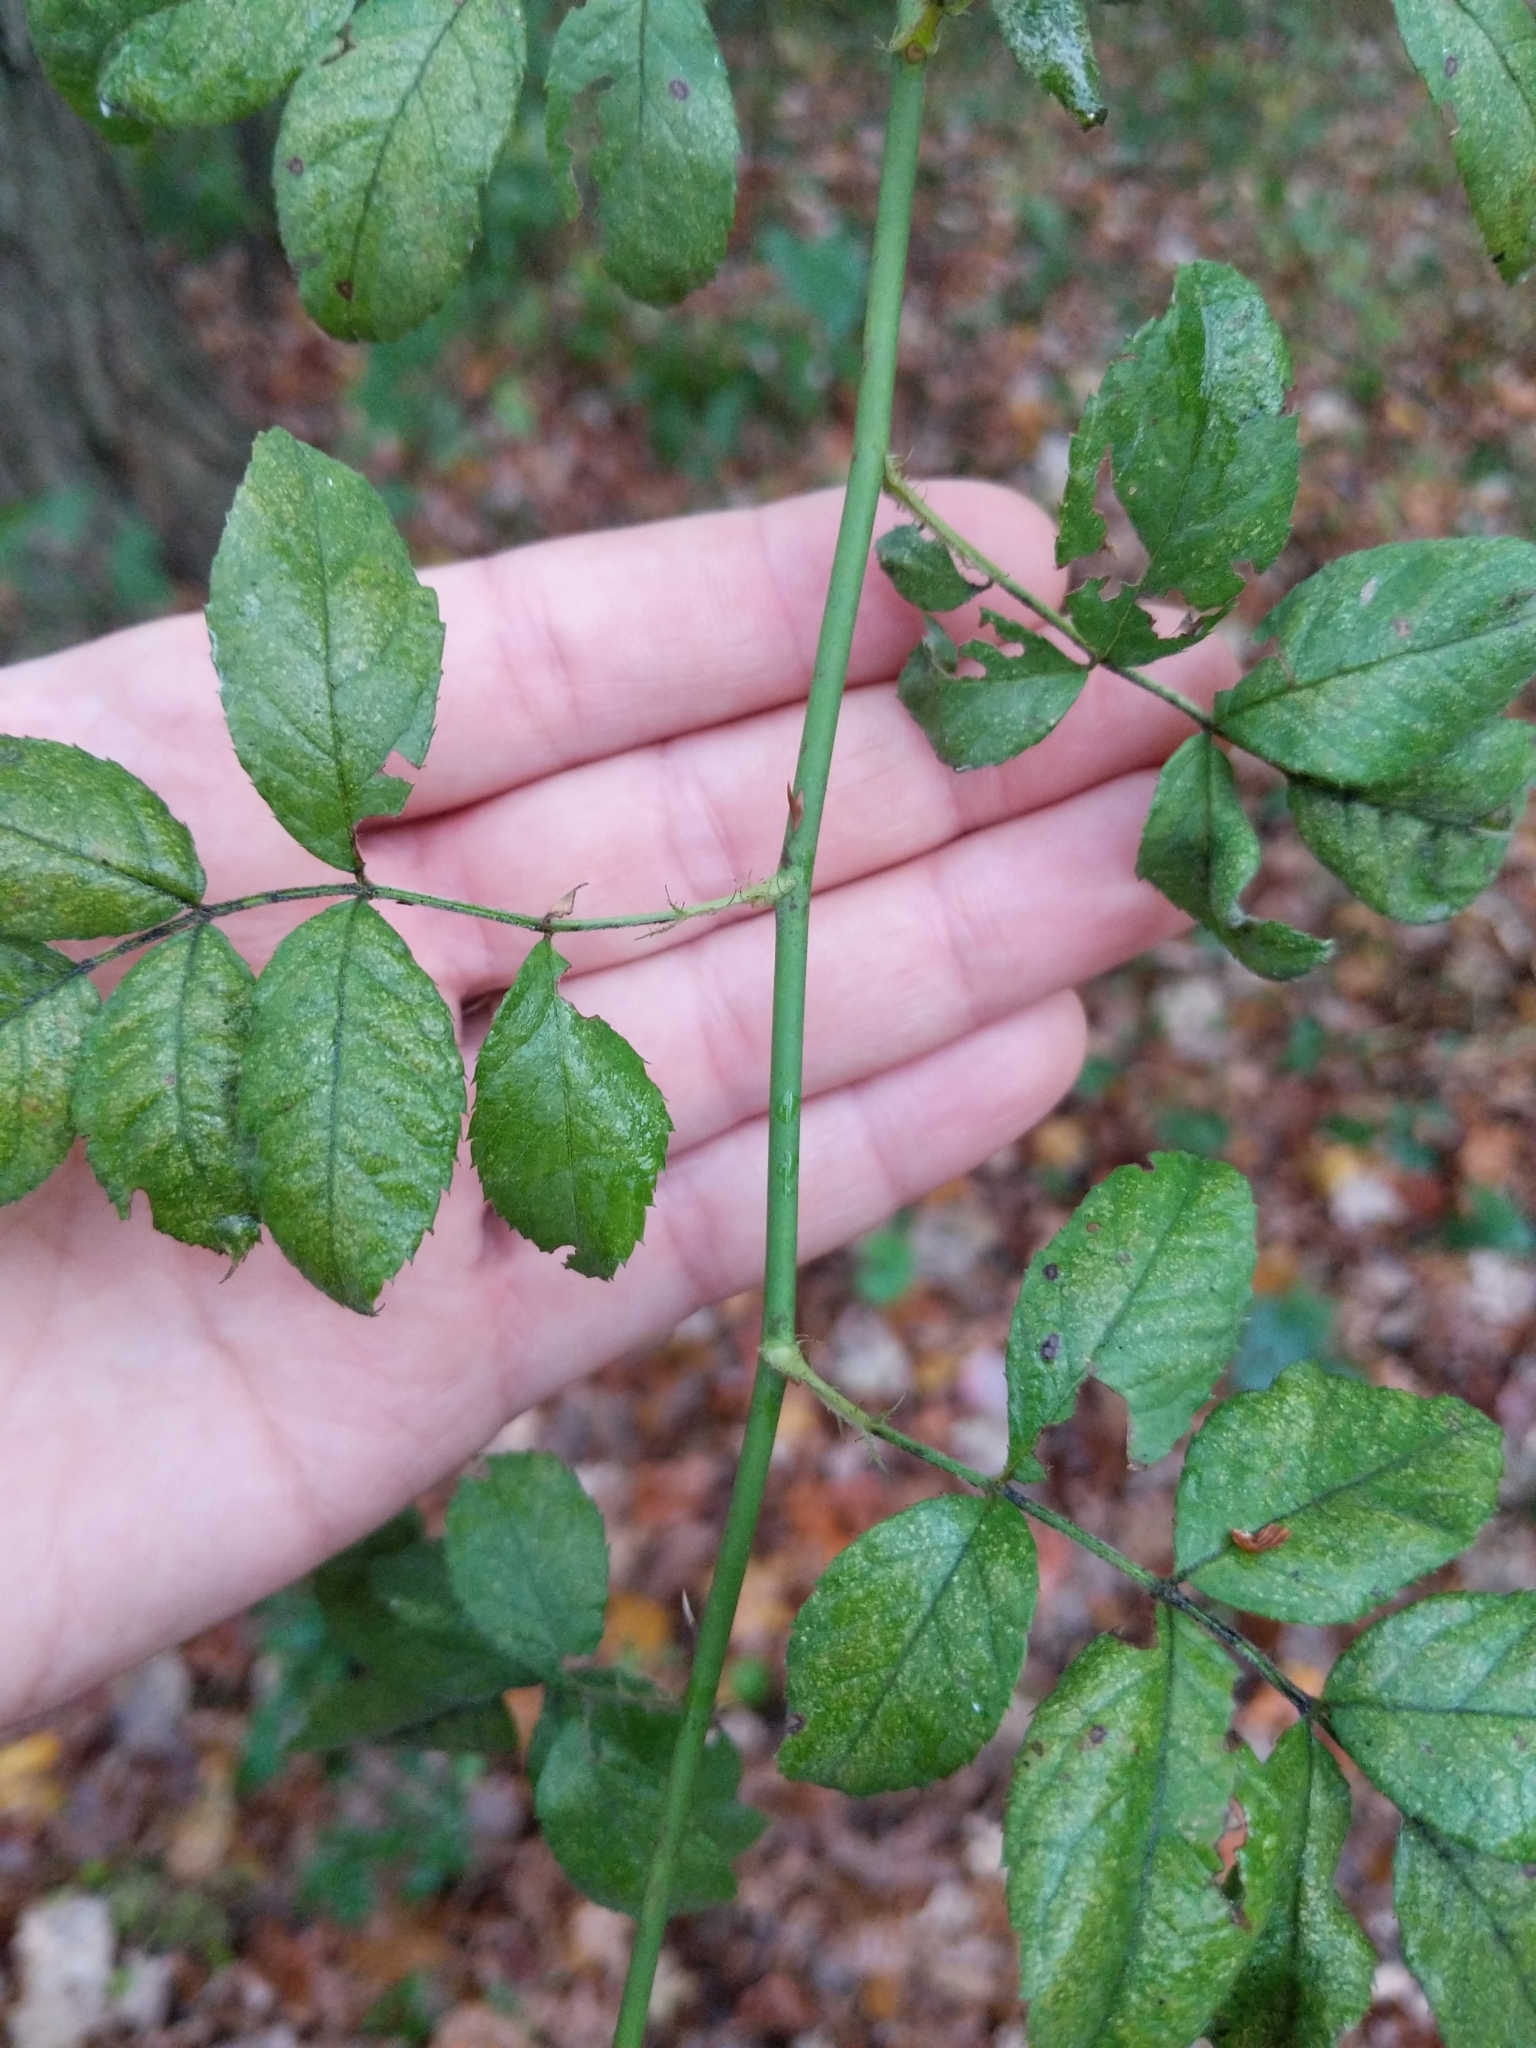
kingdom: Plantae
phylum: Tracheophyta
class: Magnoliopsida
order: Rosales
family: Rosaceae
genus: Rosa
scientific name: Rosa multiflora
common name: Multiflora rose
